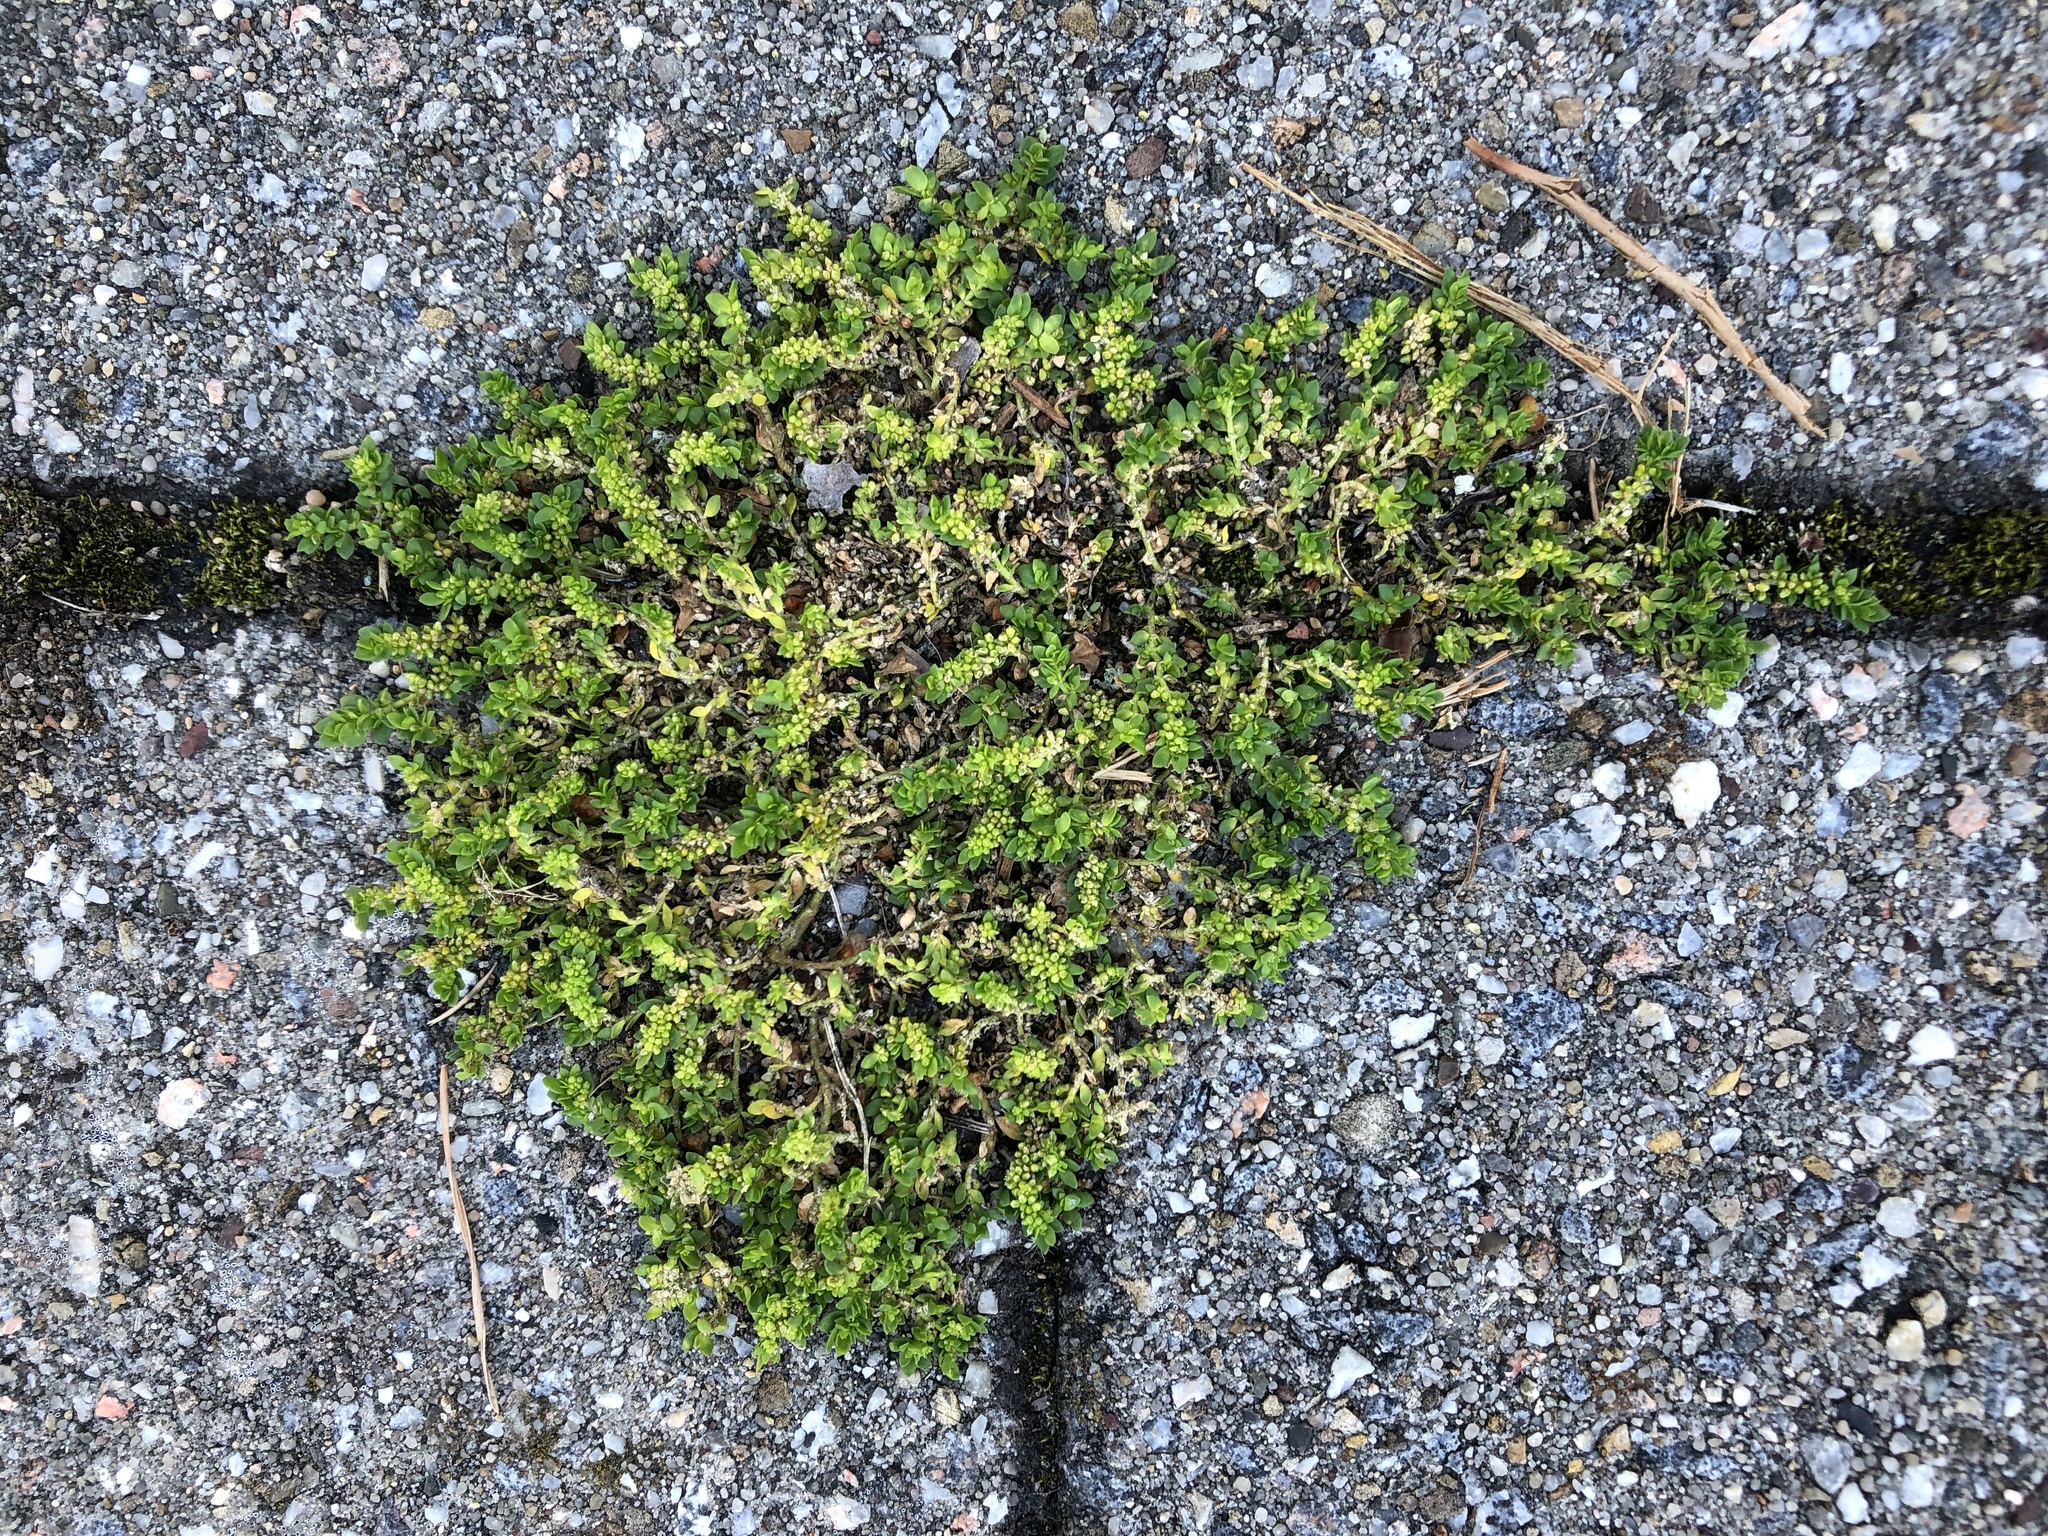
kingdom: Plantae
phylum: Tracheophyta
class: Magnoliopsida
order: Caryophyllales
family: Caryophyllaceae
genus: Herniaria
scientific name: Herniaria glabra
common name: Smooth rupturewort
